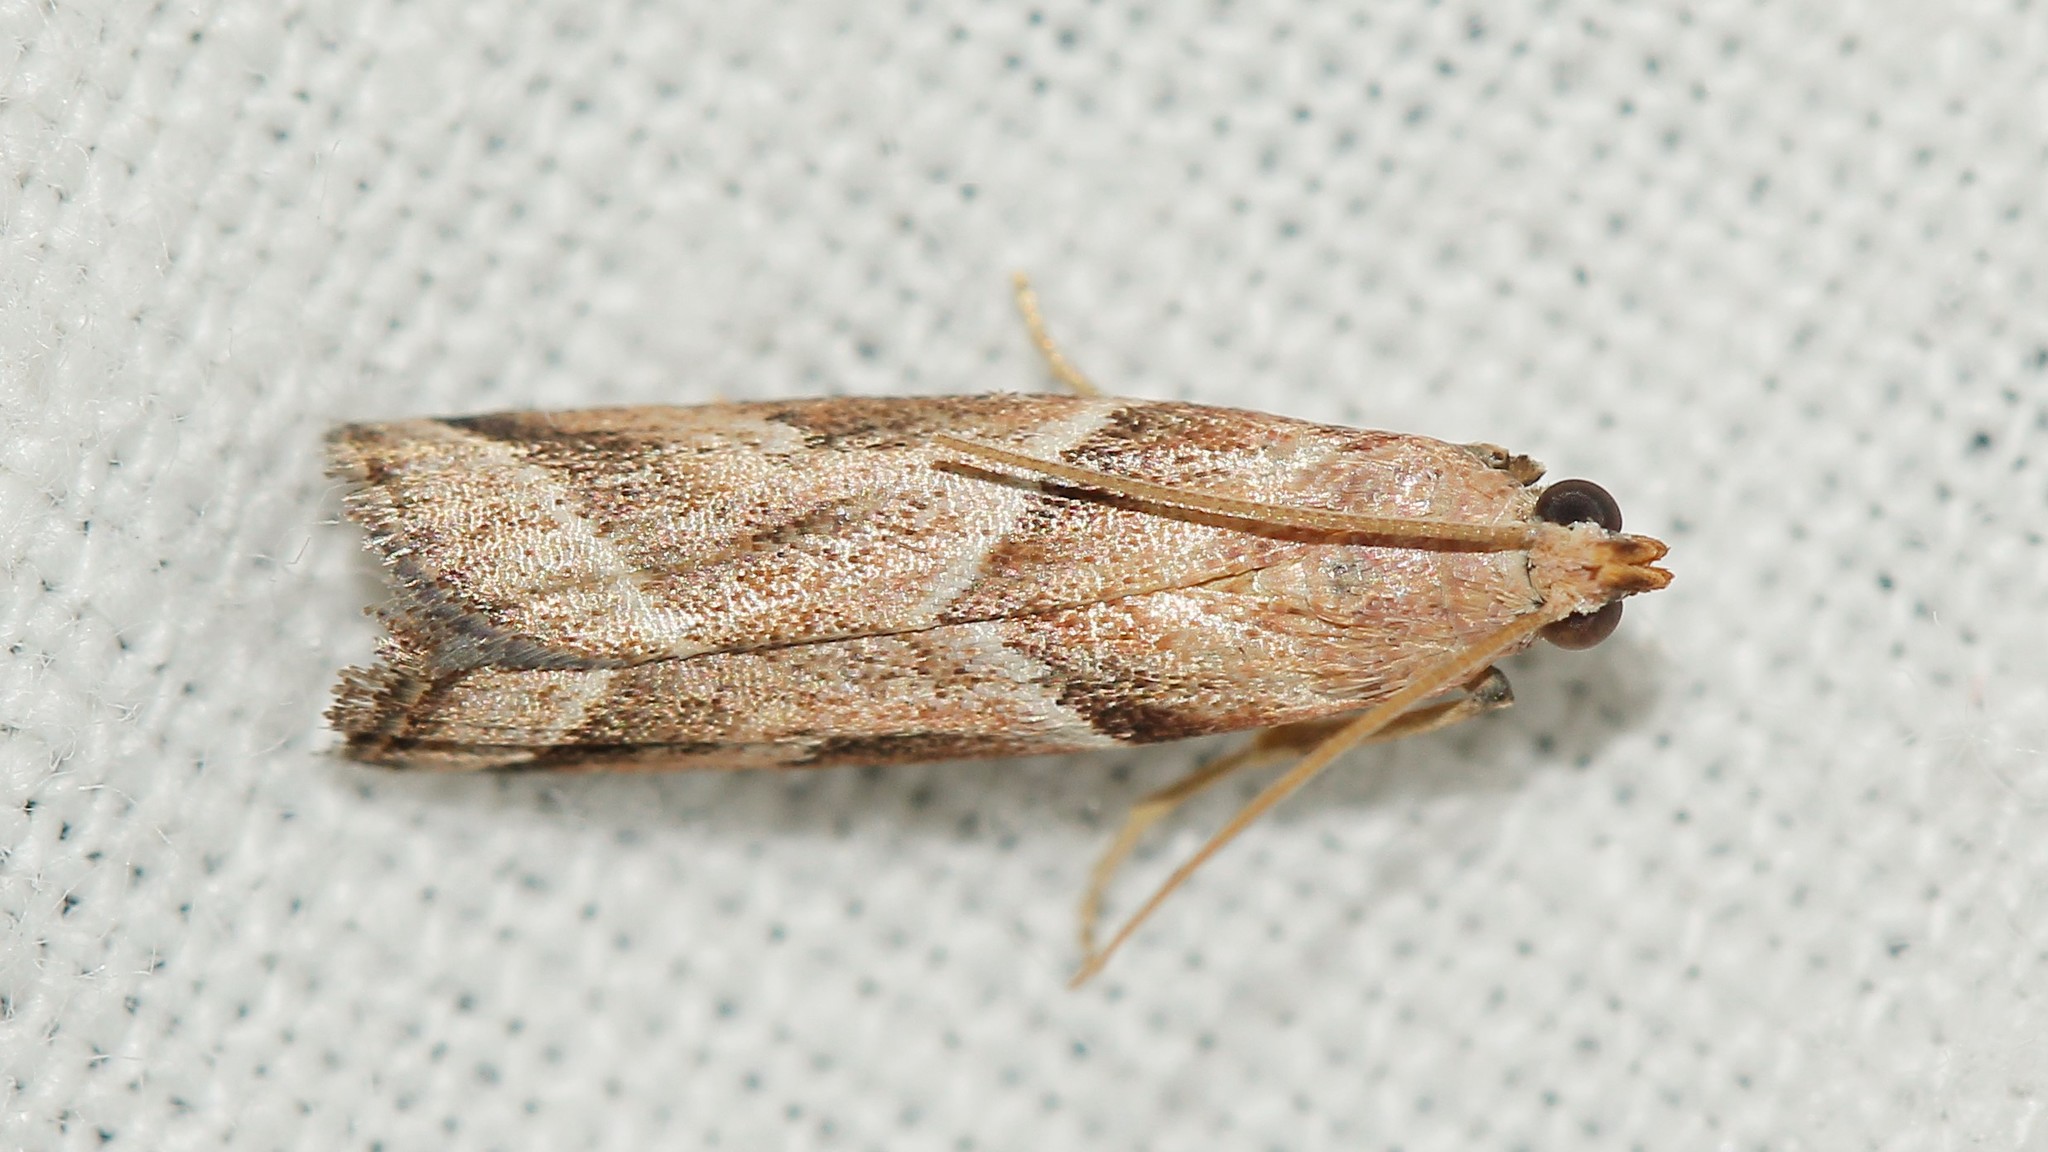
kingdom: Animalia
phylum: Arthropoda
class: Insecta
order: Lepidoptera
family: Pyralidae
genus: Nyctegretis
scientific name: Nyctegretis lineana
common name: Agate knot-horn
